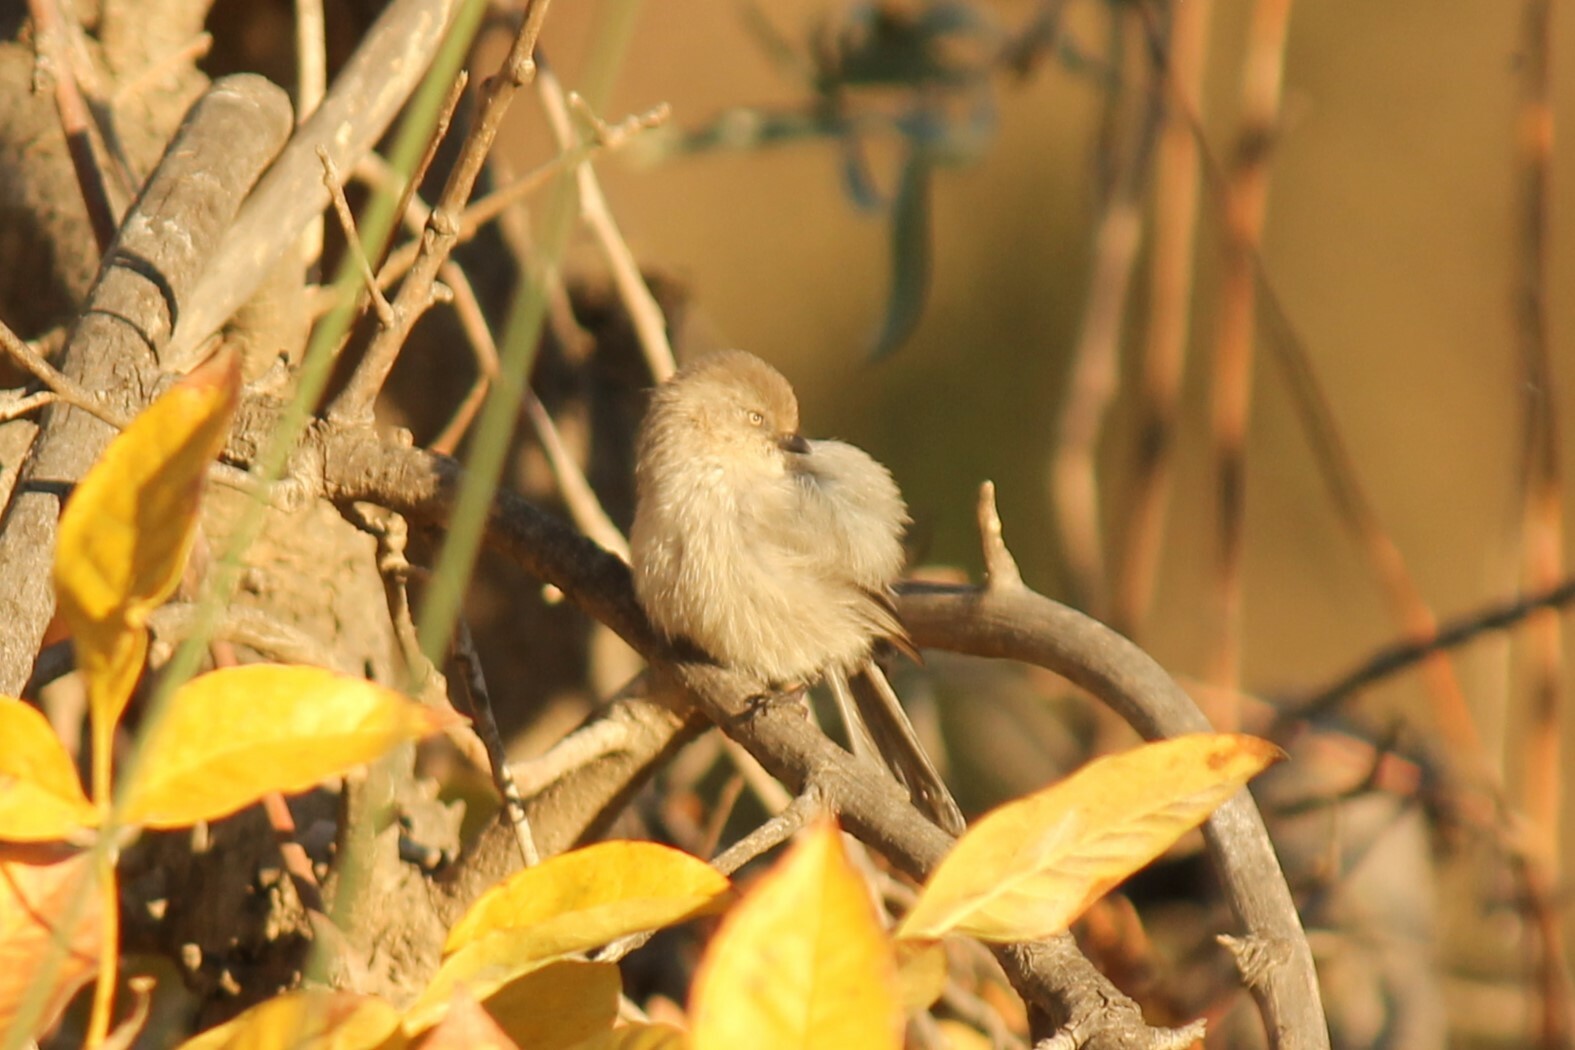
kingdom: Animalia
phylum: Chordata
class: Aves
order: Passeriformes
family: Aegithalidae
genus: Psaltriparus
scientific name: Psaltriparus minimus
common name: American bushtit
